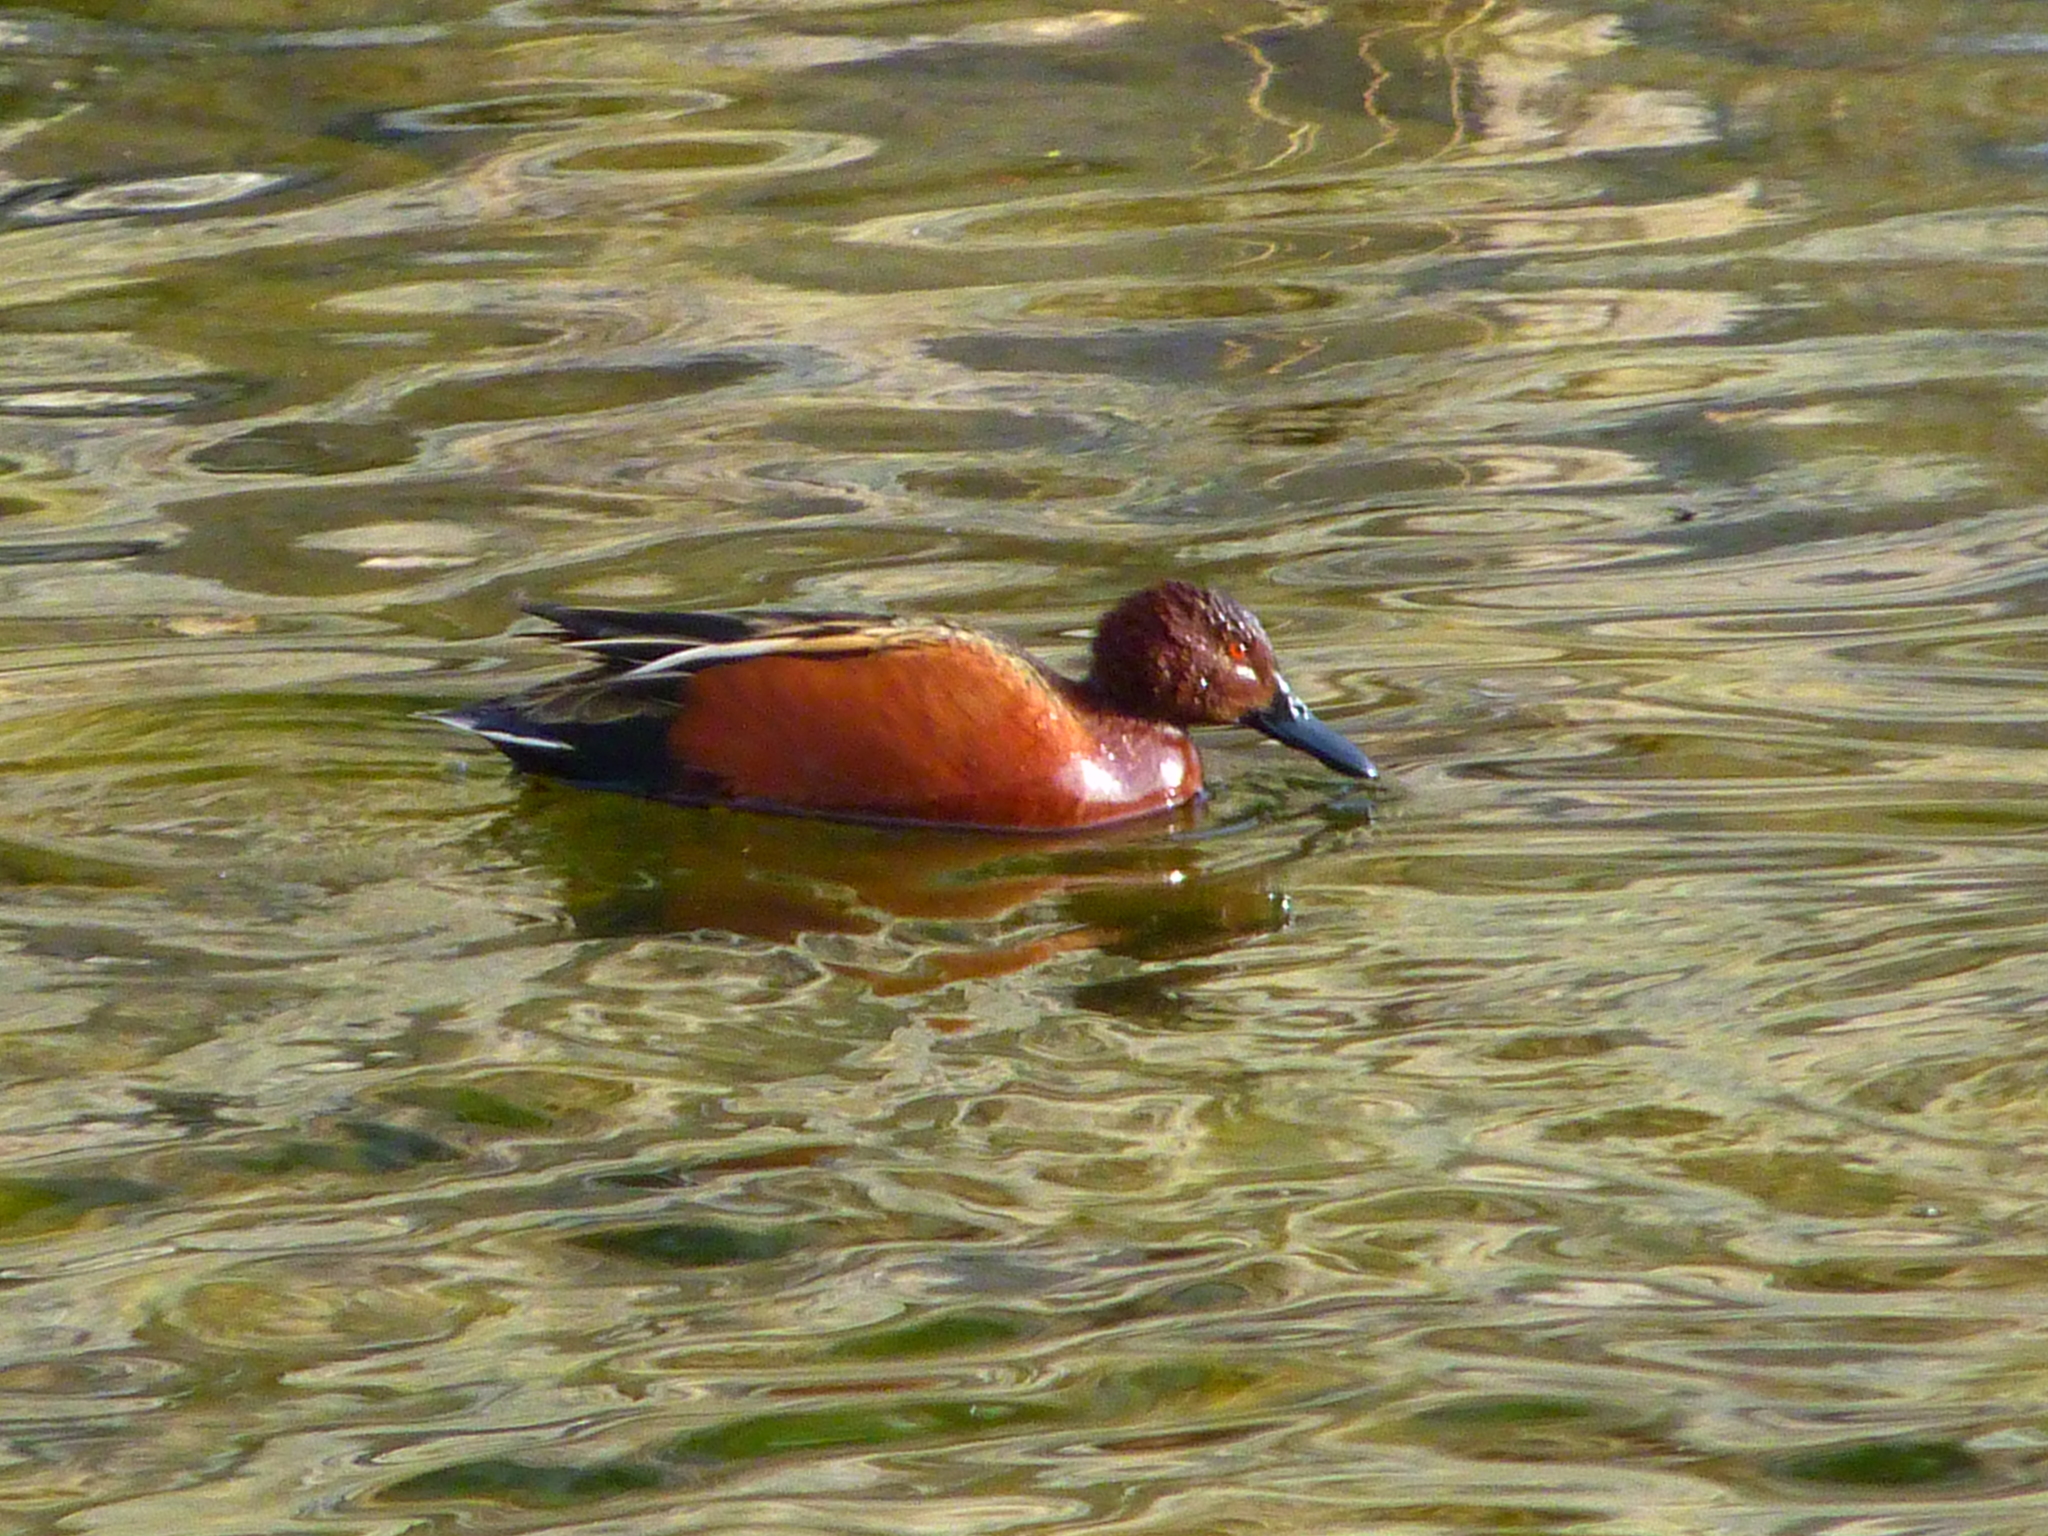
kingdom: Animalia
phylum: Chordata
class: Aves
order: Anseriformes
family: Anatidae
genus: Spatula
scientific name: Spatula cyanoptera
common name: Cinnamon teal
